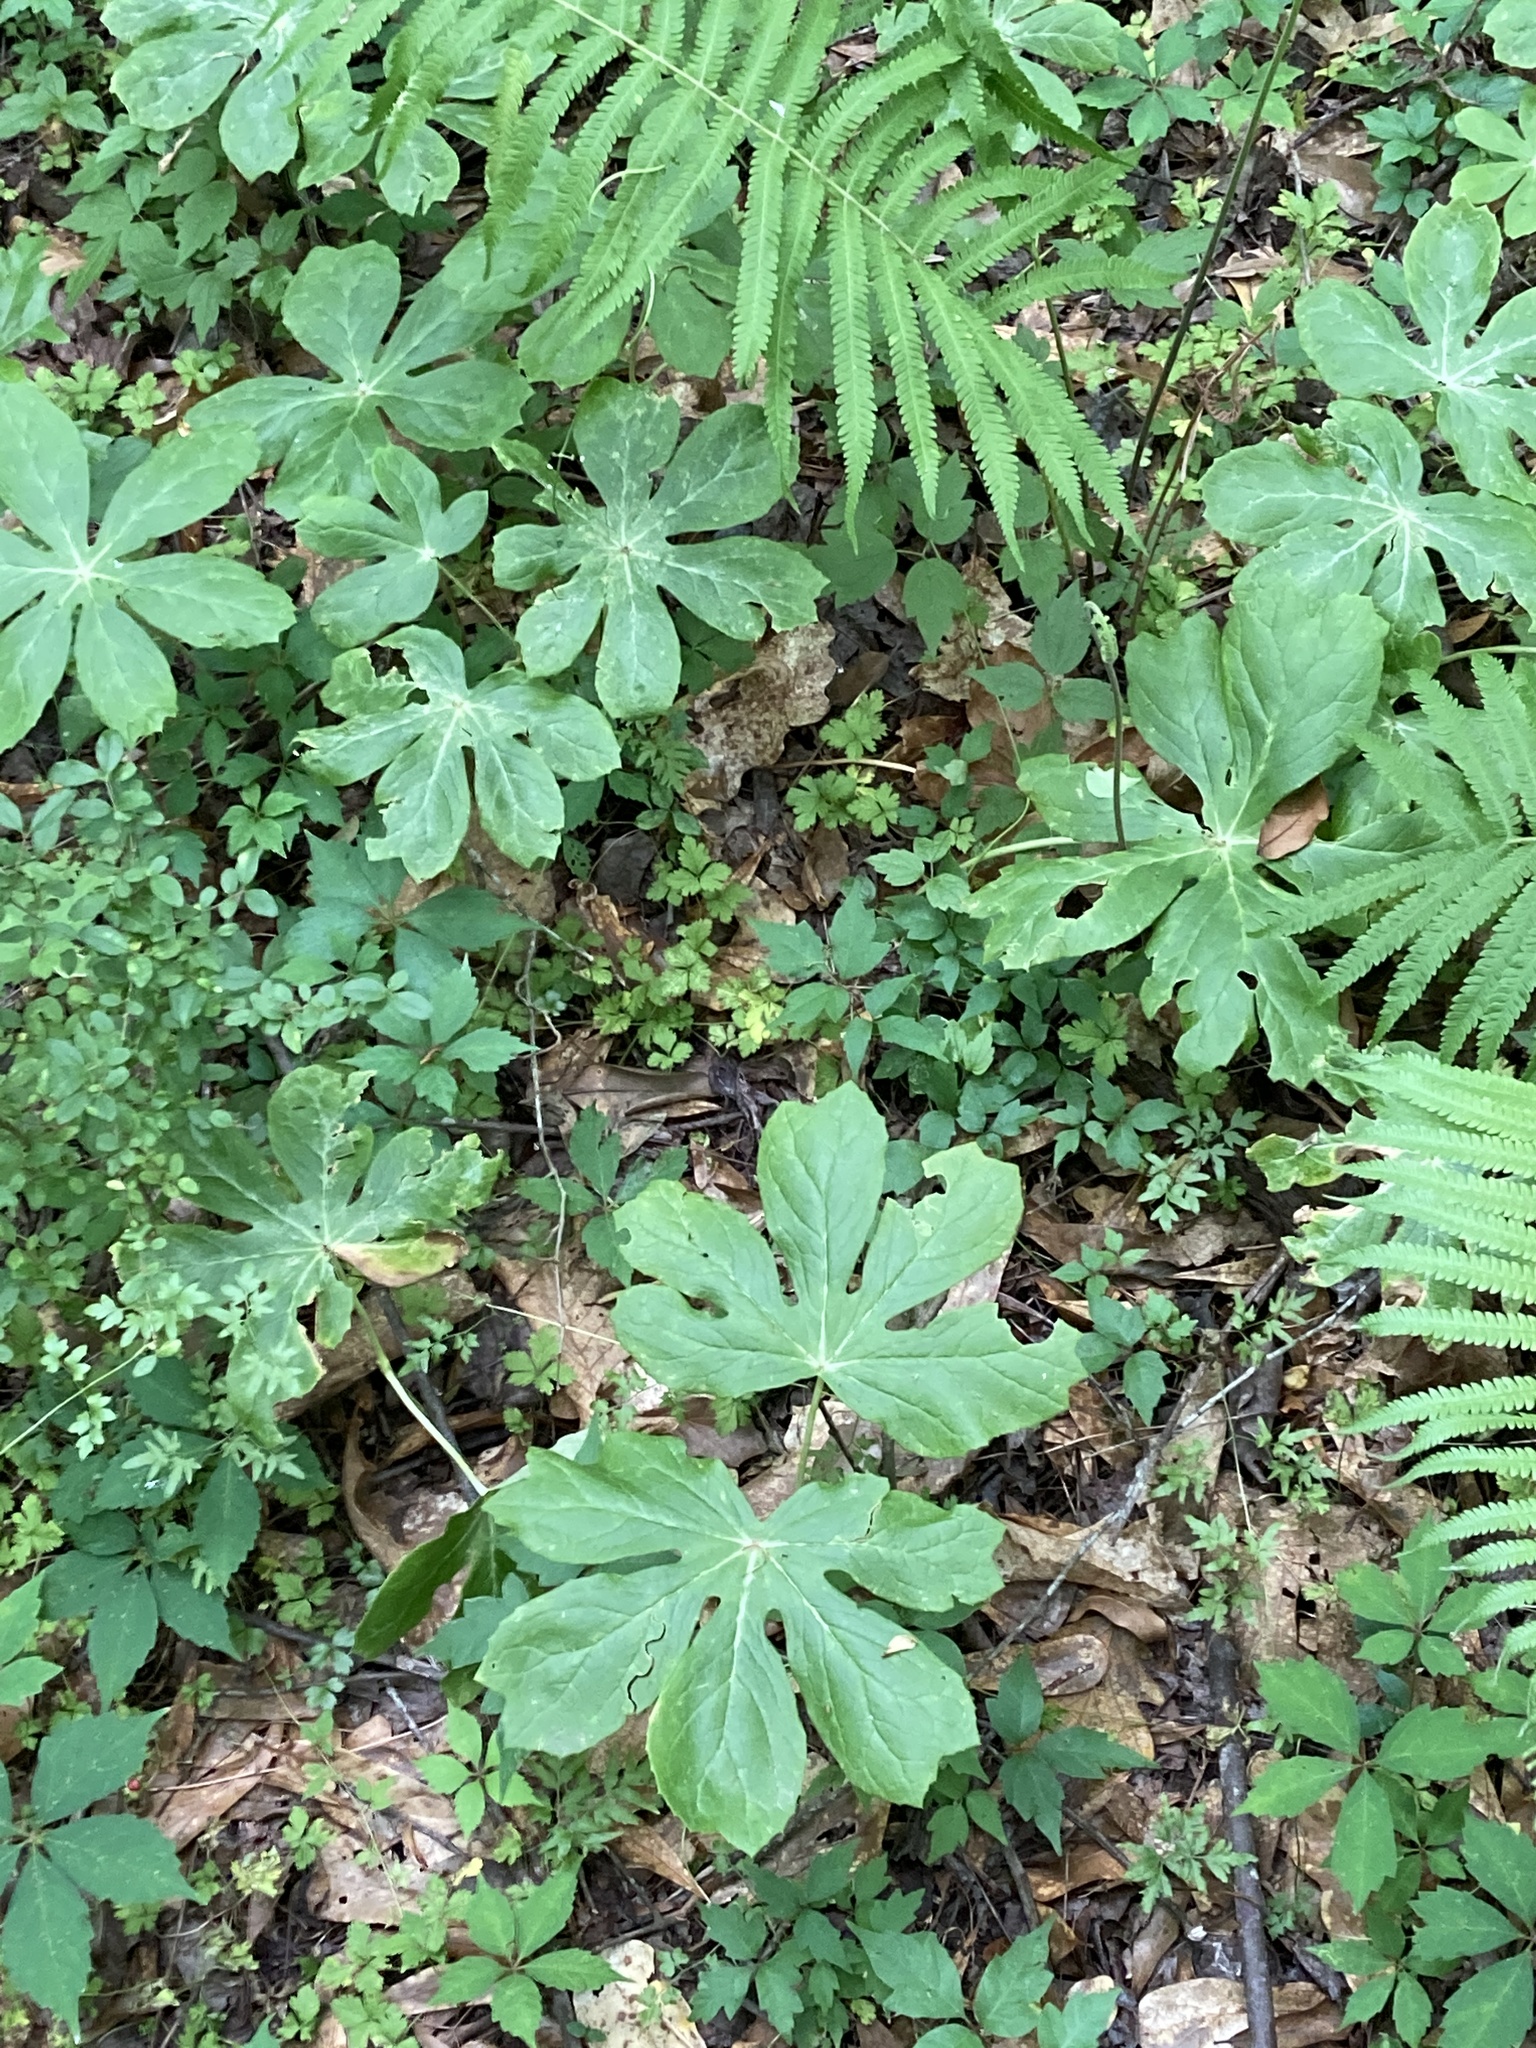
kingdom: Plantae
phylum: Tracheophyta
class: Magnoliopsida
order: Ranunculales
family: Berberidaceae
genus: Podophyllum
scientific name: Podophyllum peltatum
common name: Wild mandrake
